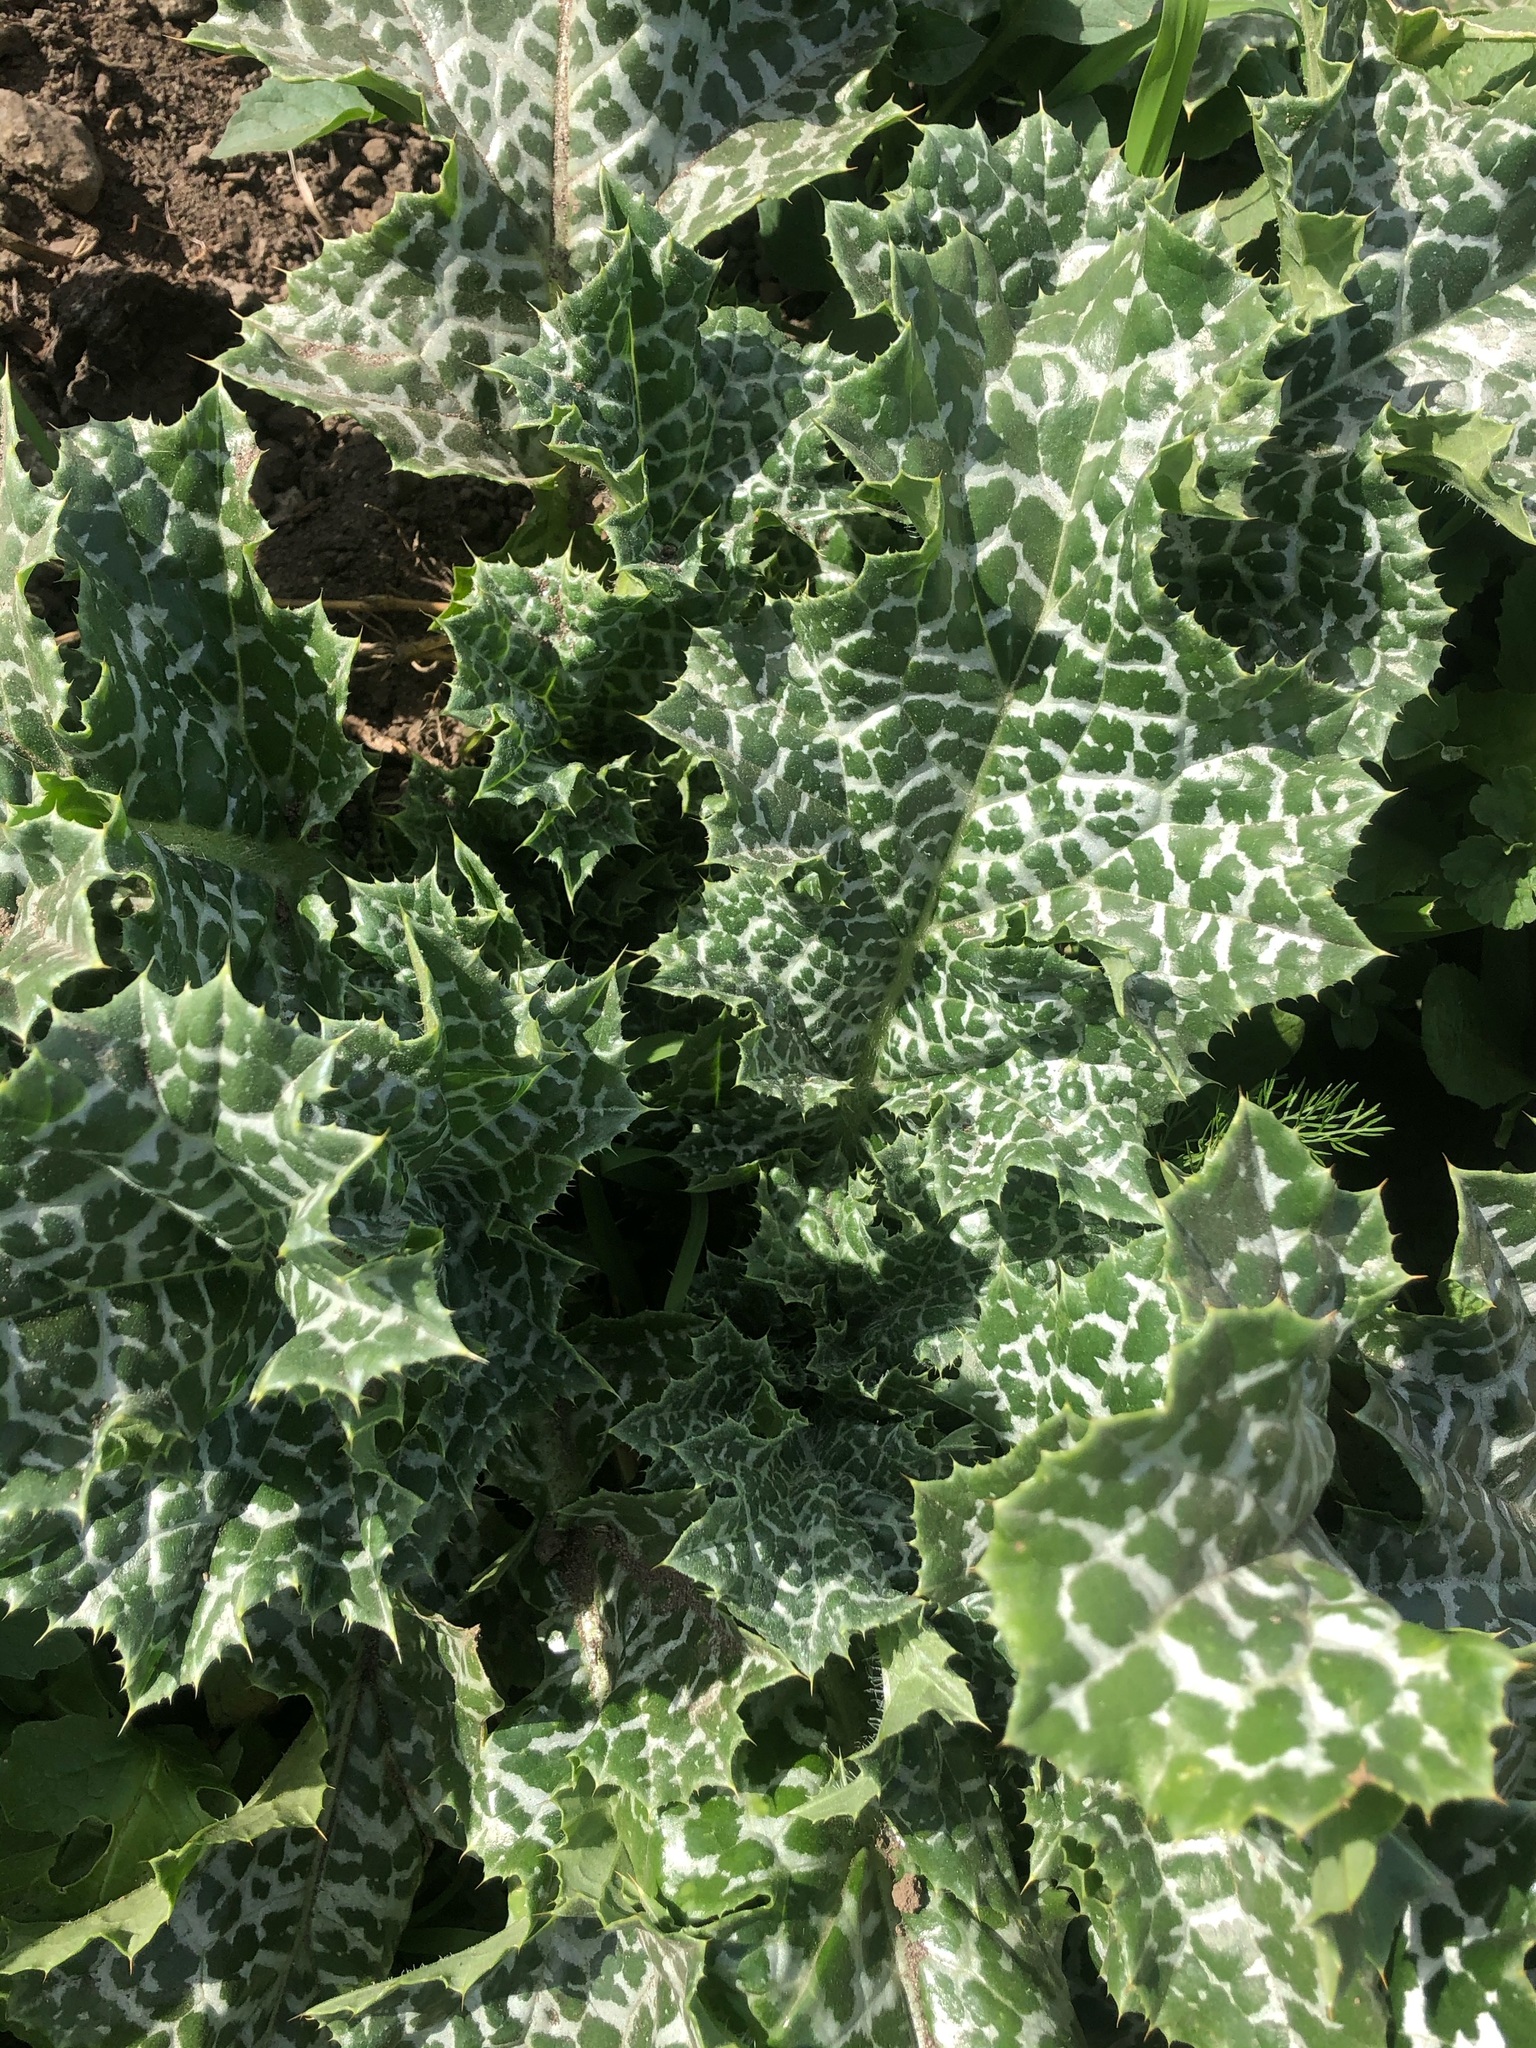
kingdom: Plantae
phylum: Tracheophyta
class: Magnoliopsida
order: Asterales
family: Asteraceae
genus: Silybum
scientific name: Silybum marianum
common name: Milk thistle
